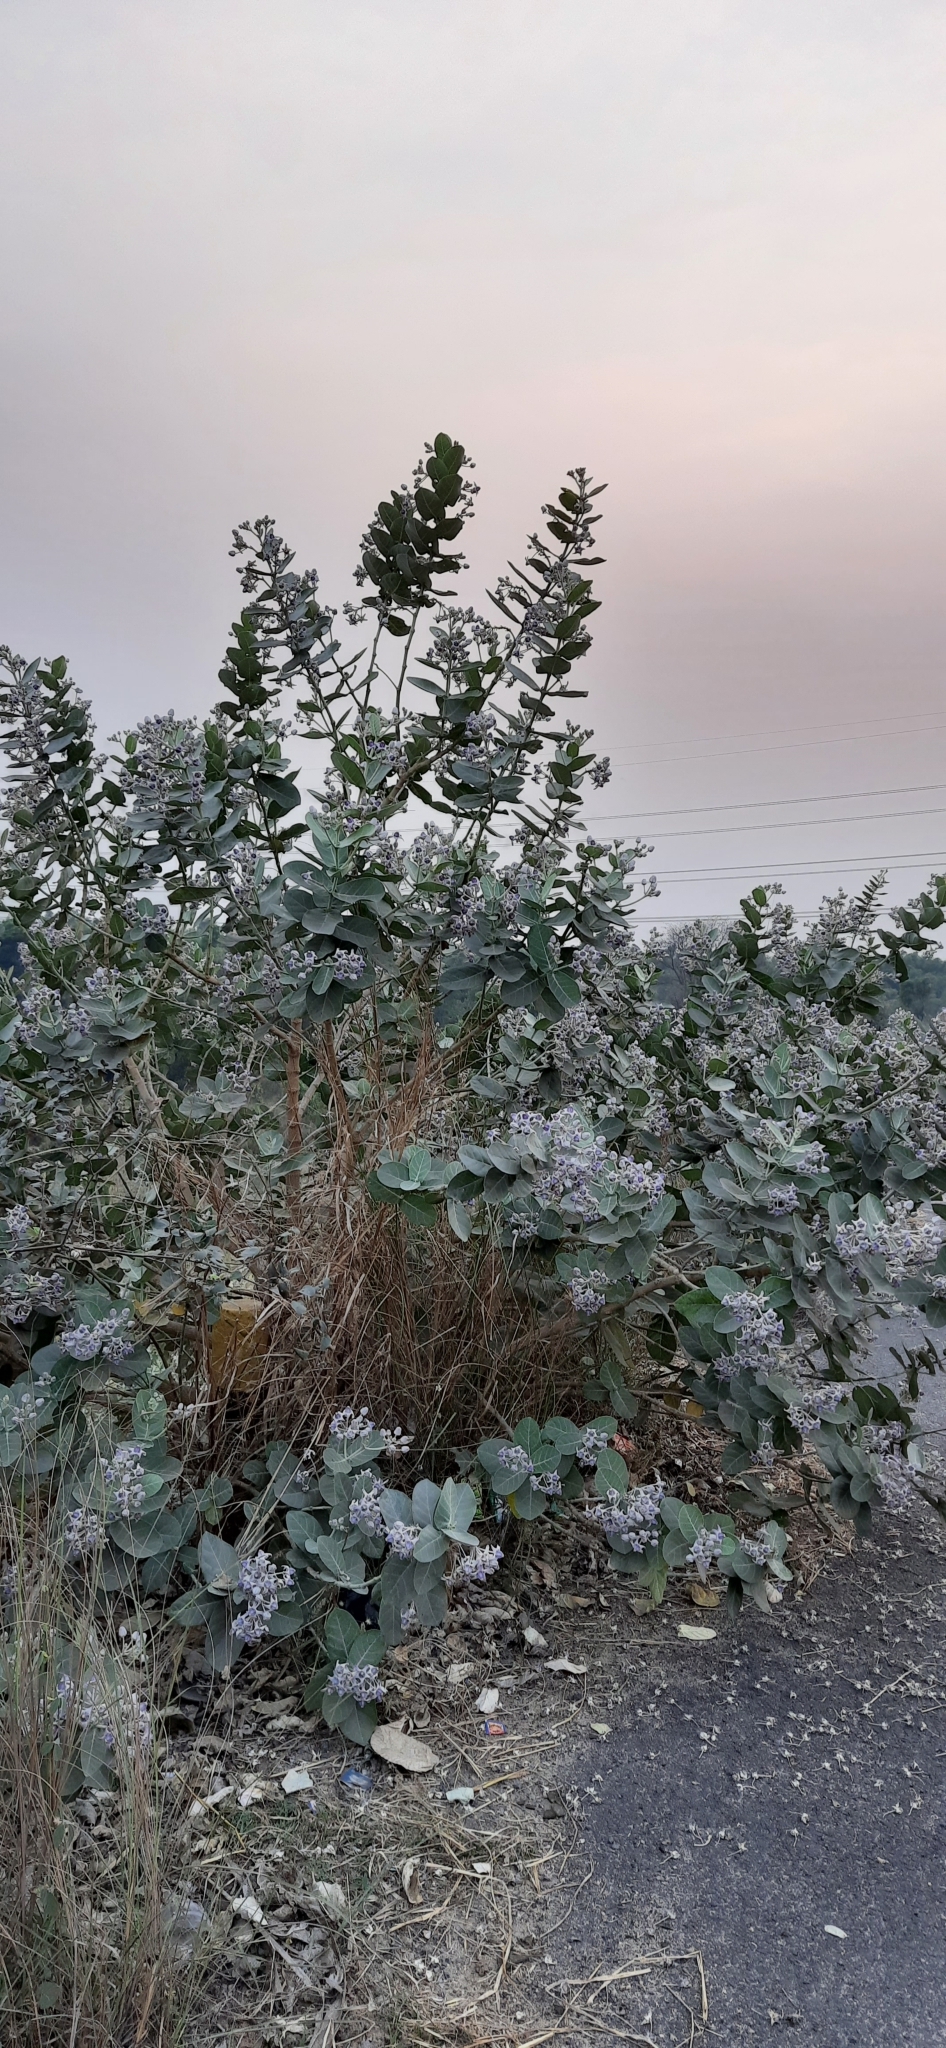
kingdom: Plantae
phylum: Tracheophyta
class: Magnoliopsida
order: Gentianales
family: Apocynaceae
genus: Calotropis
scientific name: Calotropis gigantea
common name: Crown flower
